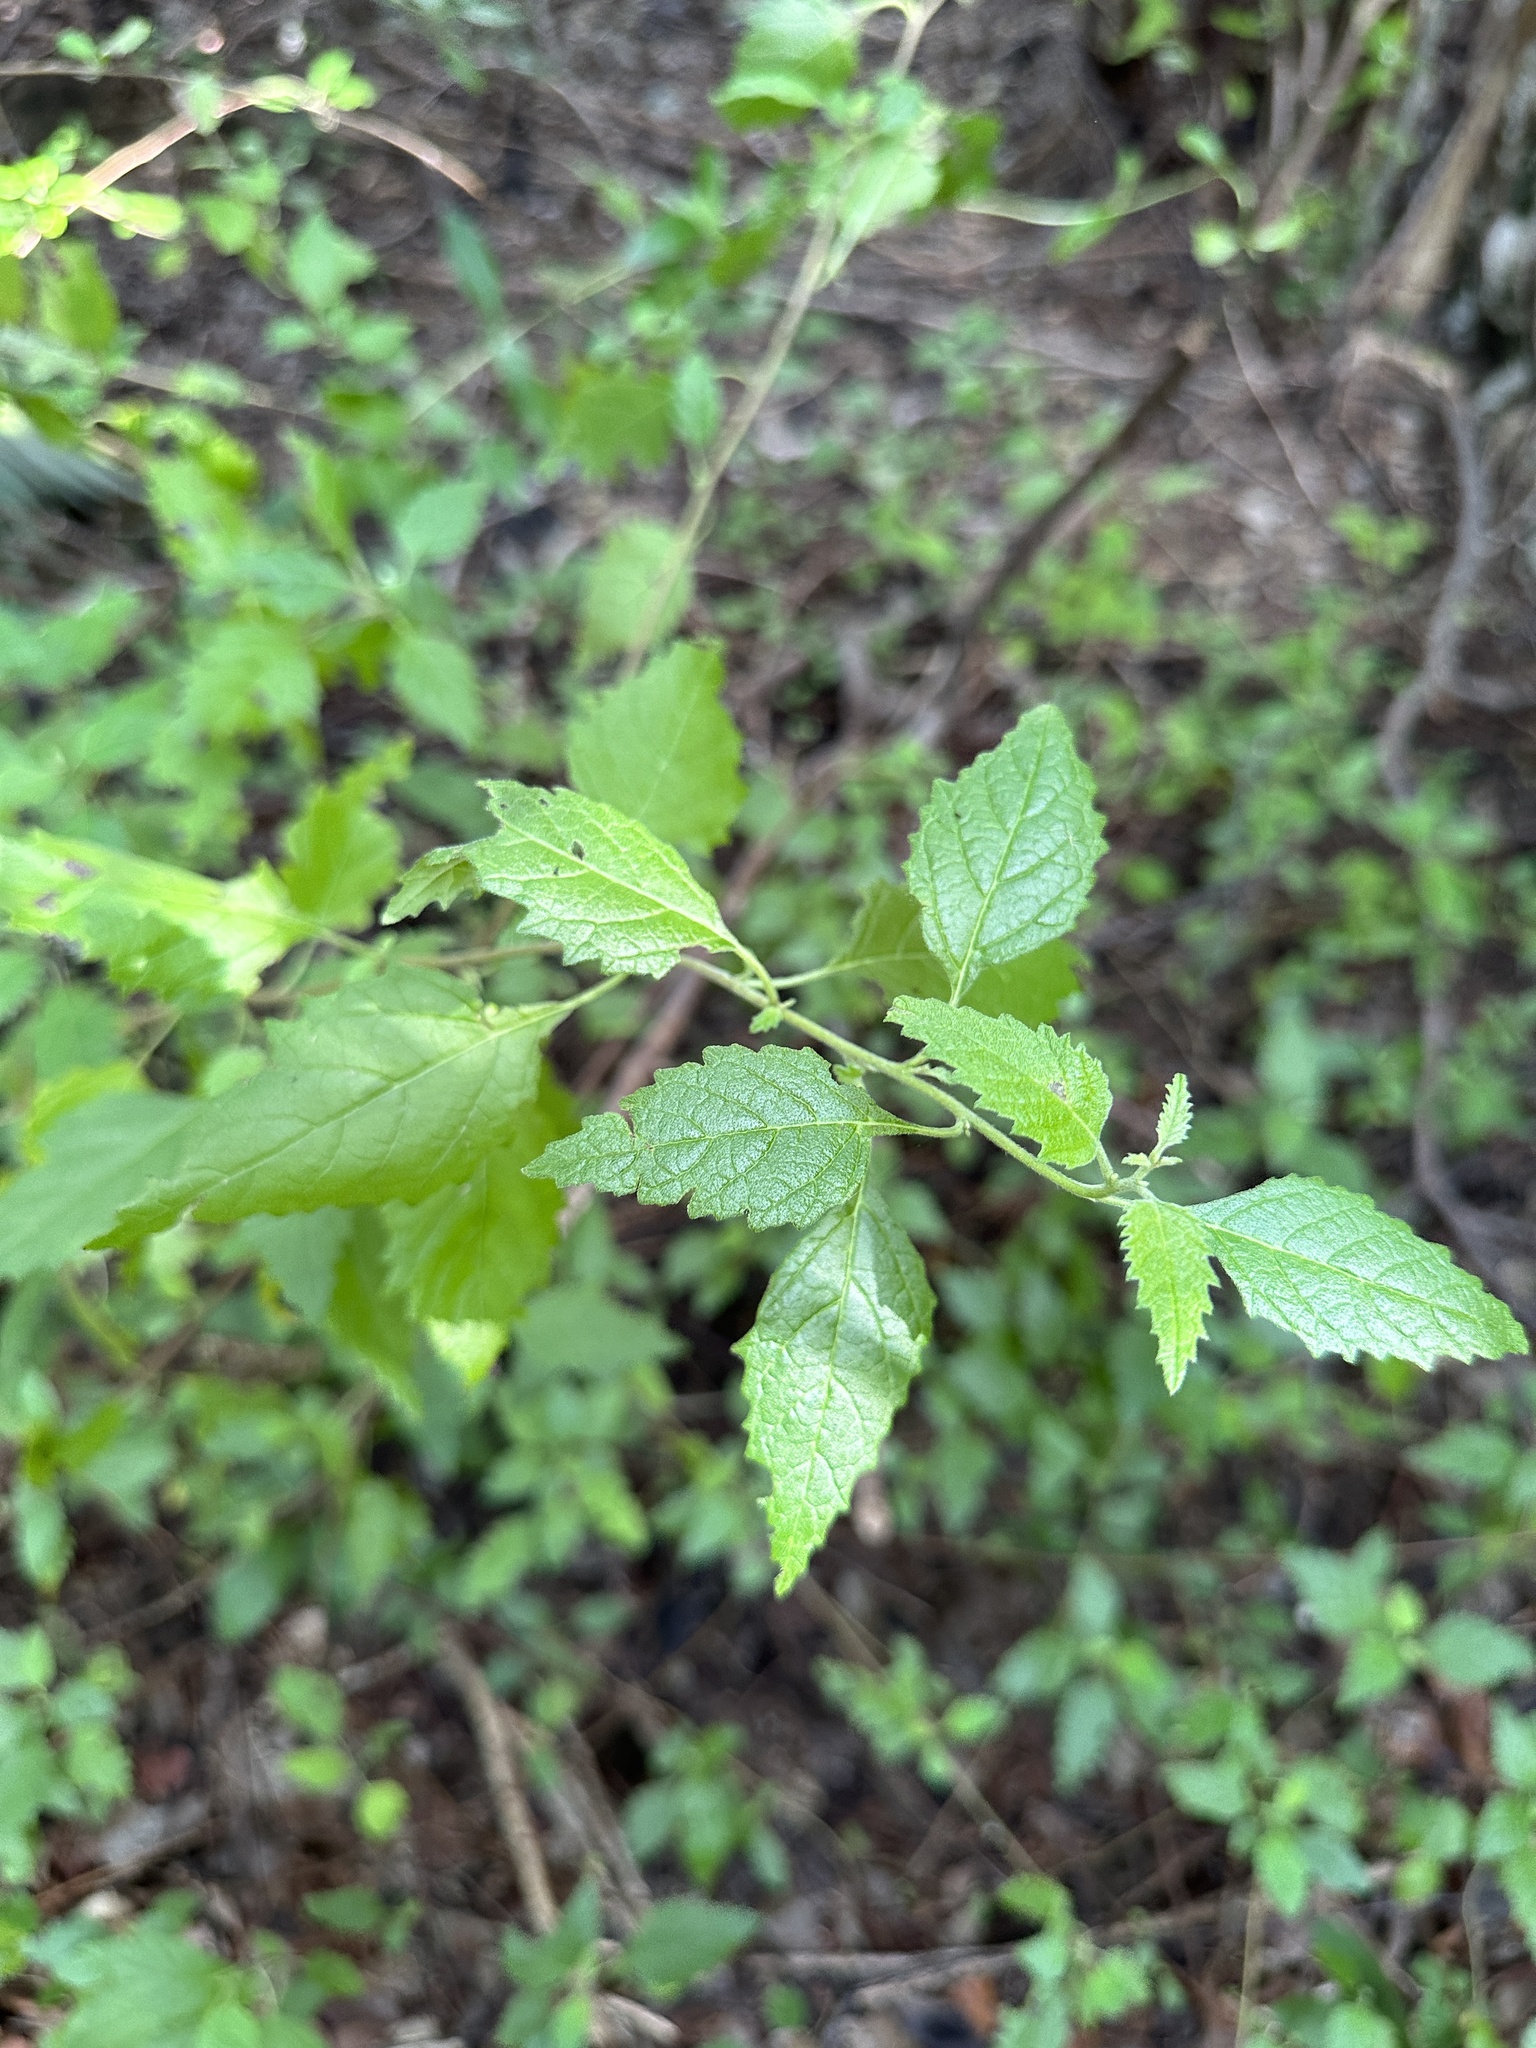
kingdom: Plantae
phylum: Tracheophyta
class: Magnoliopsida
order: Boraginales
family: Cordiaceae
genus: Varronia
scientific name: Varronia bullata
